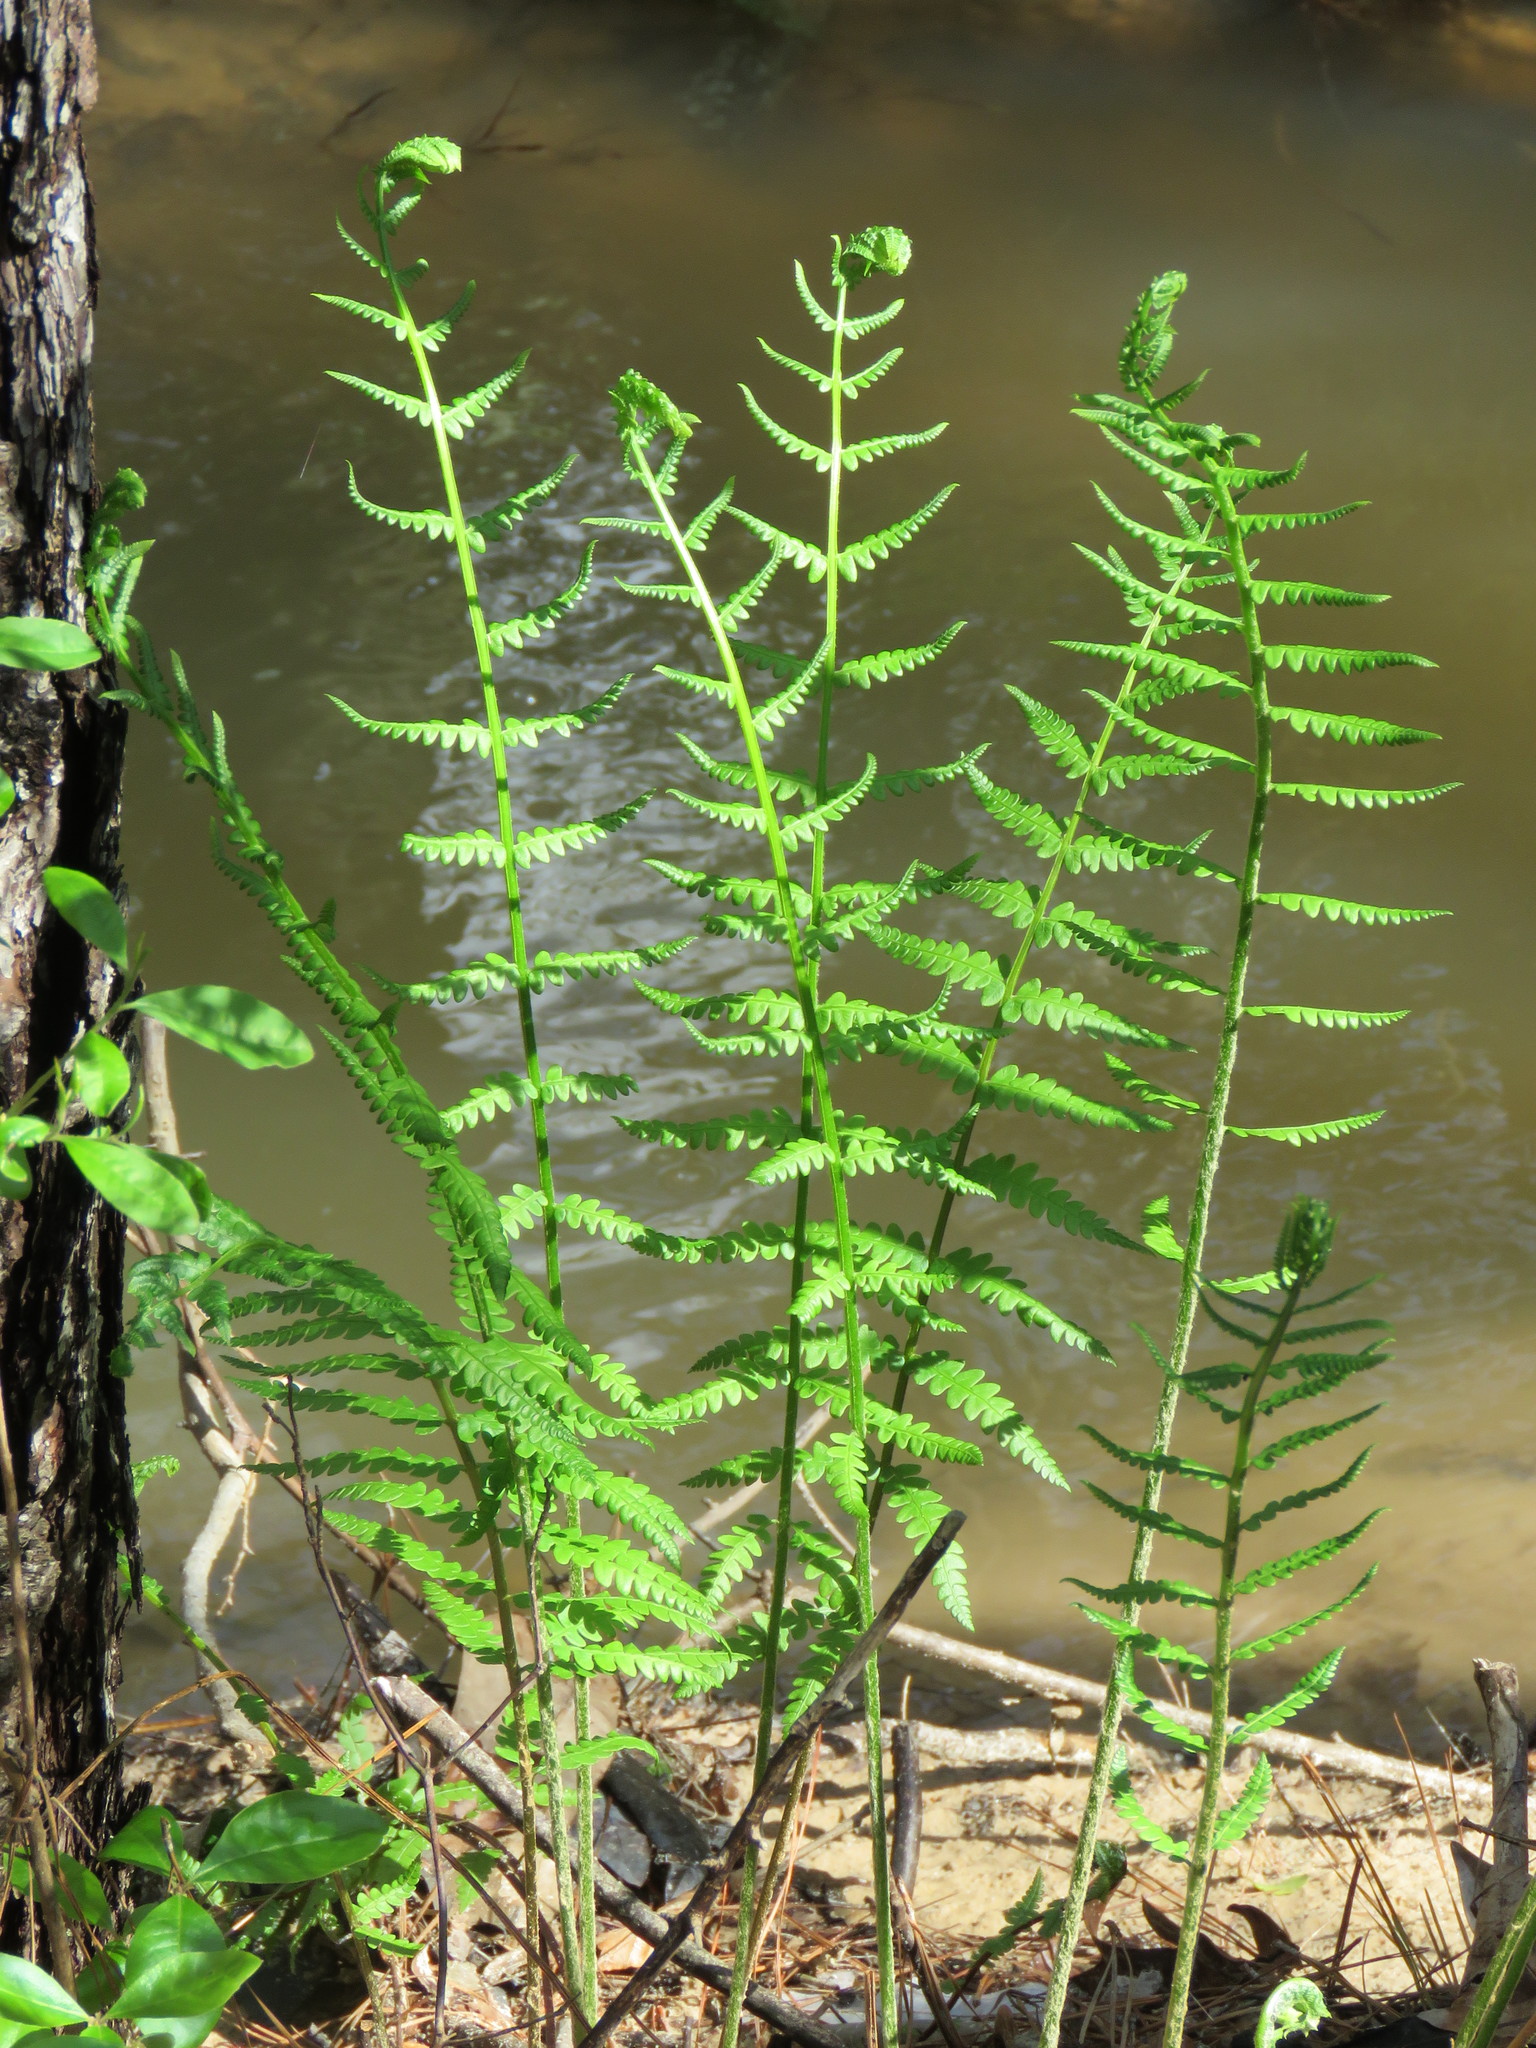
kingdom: Plantae
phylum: Tracheophyta
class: Polypodiopsida
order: Osmundales
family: Osmundaceae
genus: Osmundastrum
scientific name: Osmundastrum cinnamomeum
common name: Cinnamon fern
